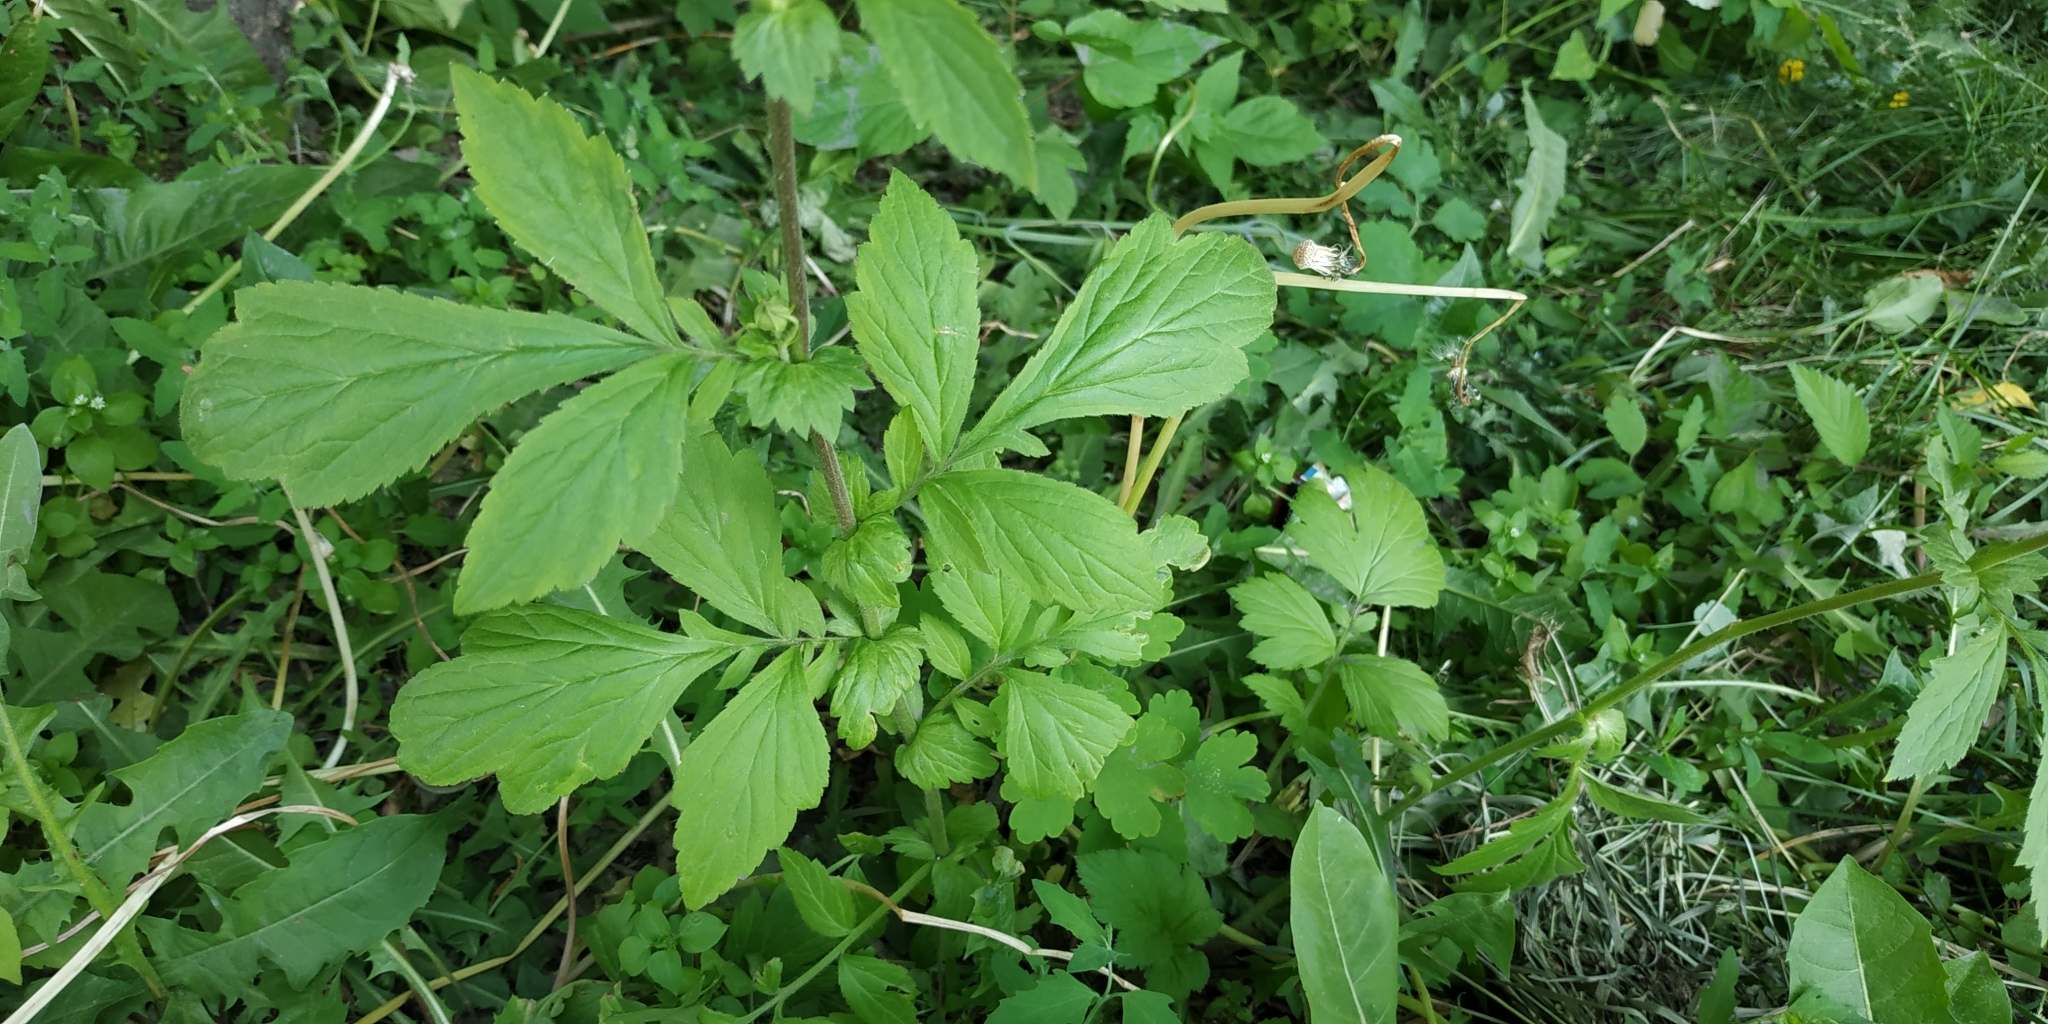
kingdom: Plantae
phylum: Tracheophyta
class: Magnoliopsida
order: Rosales
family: Rosaceae
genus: Geum
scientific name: Geum aleppicum
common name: Yellow avens
